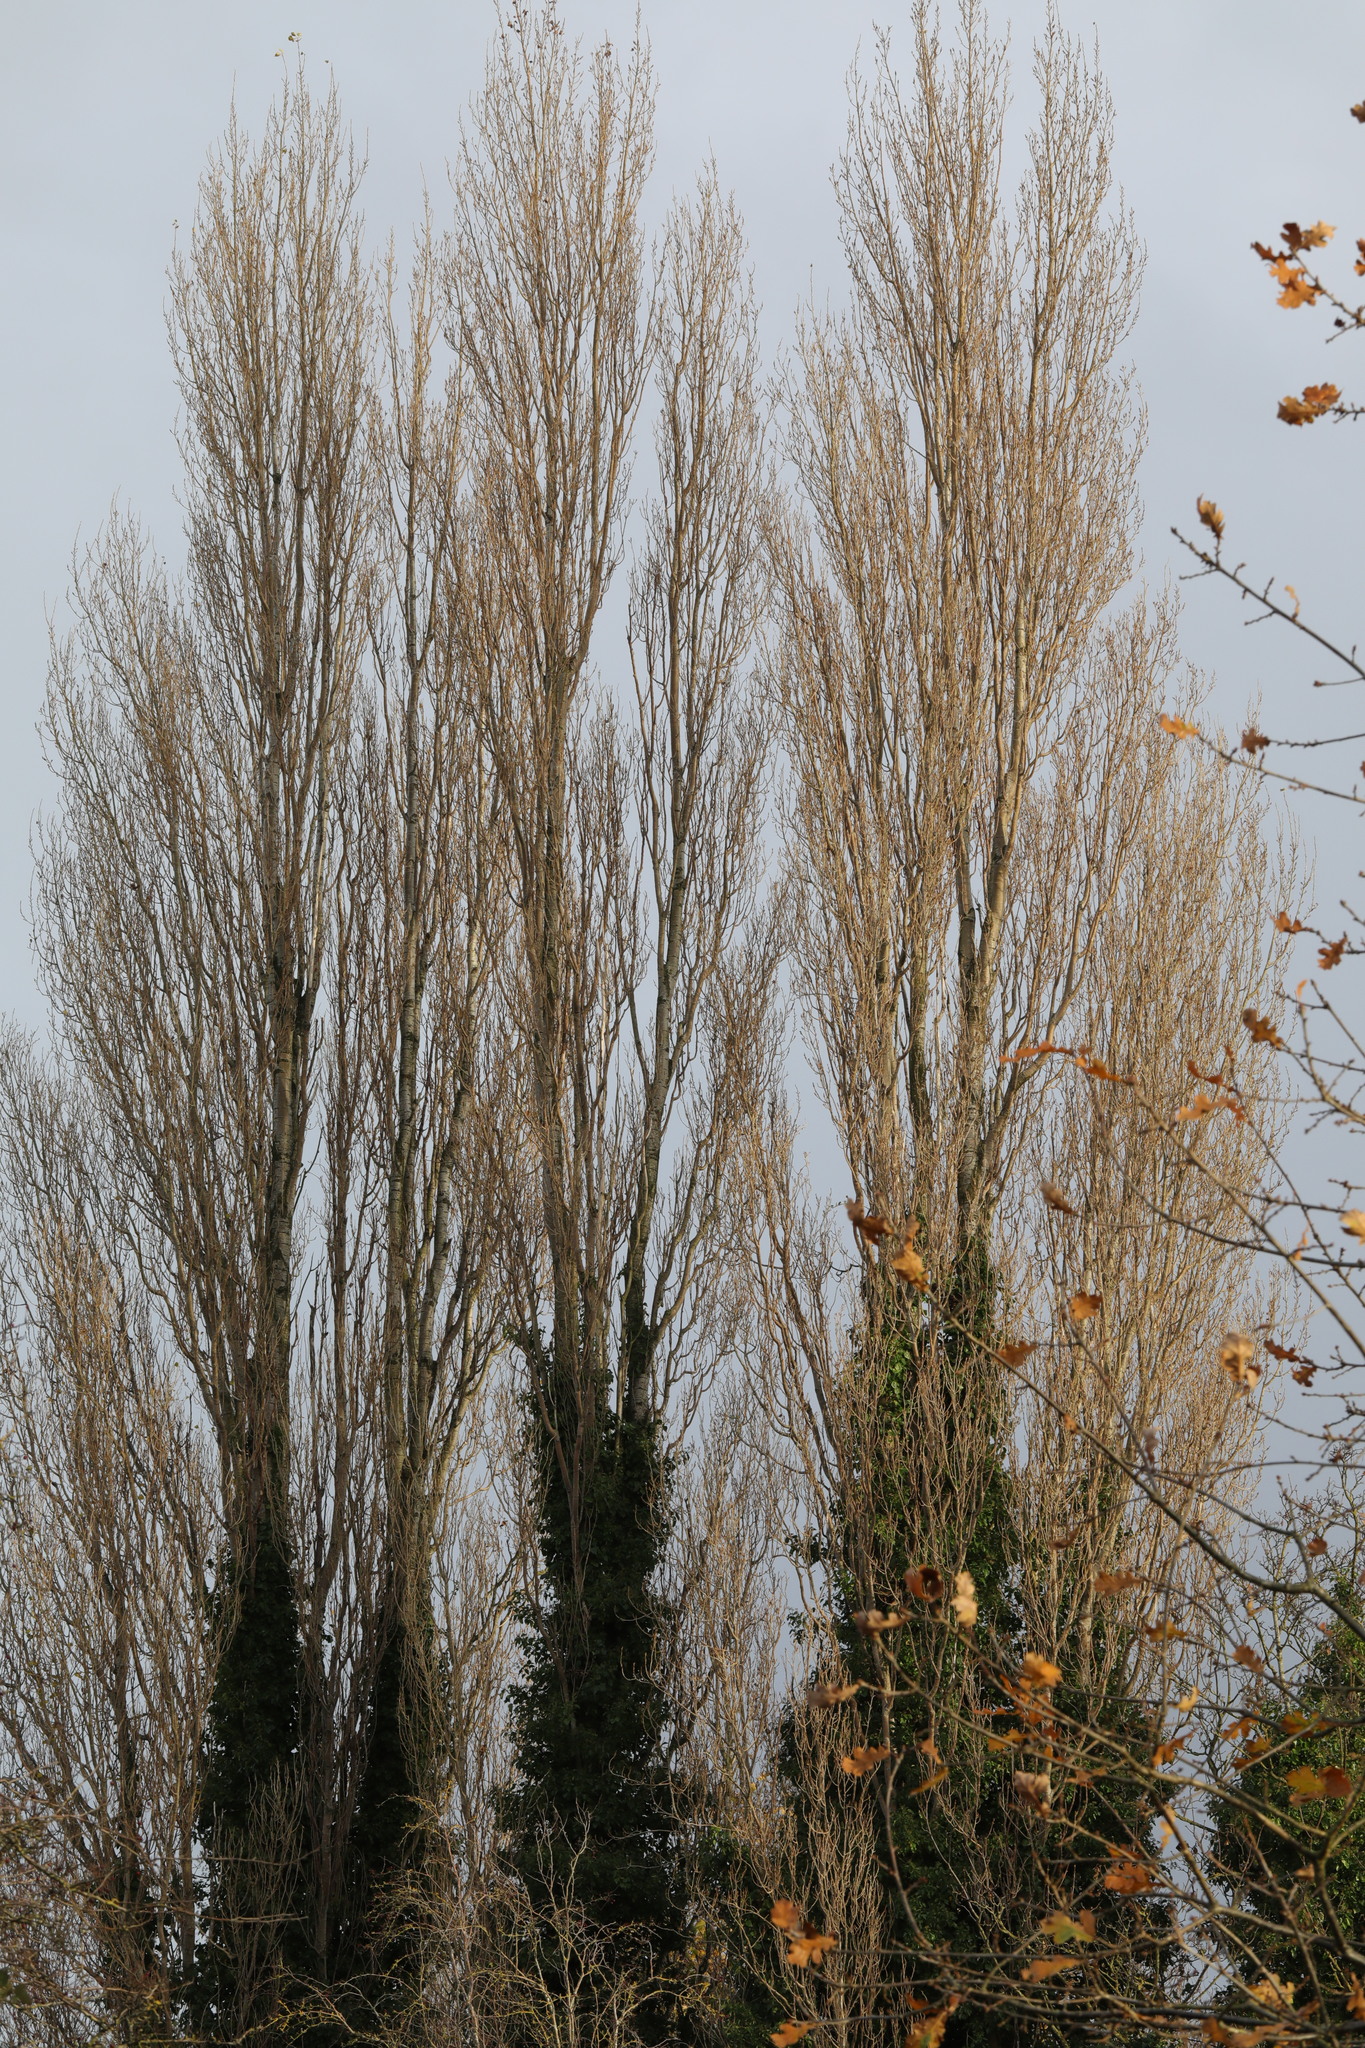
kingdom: Plantae
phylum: Tracheophyta
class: Magnoliopsida
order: Malpighiales
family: Salicaceae
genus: Populus
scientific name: Populus nigra
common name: Black poplar
